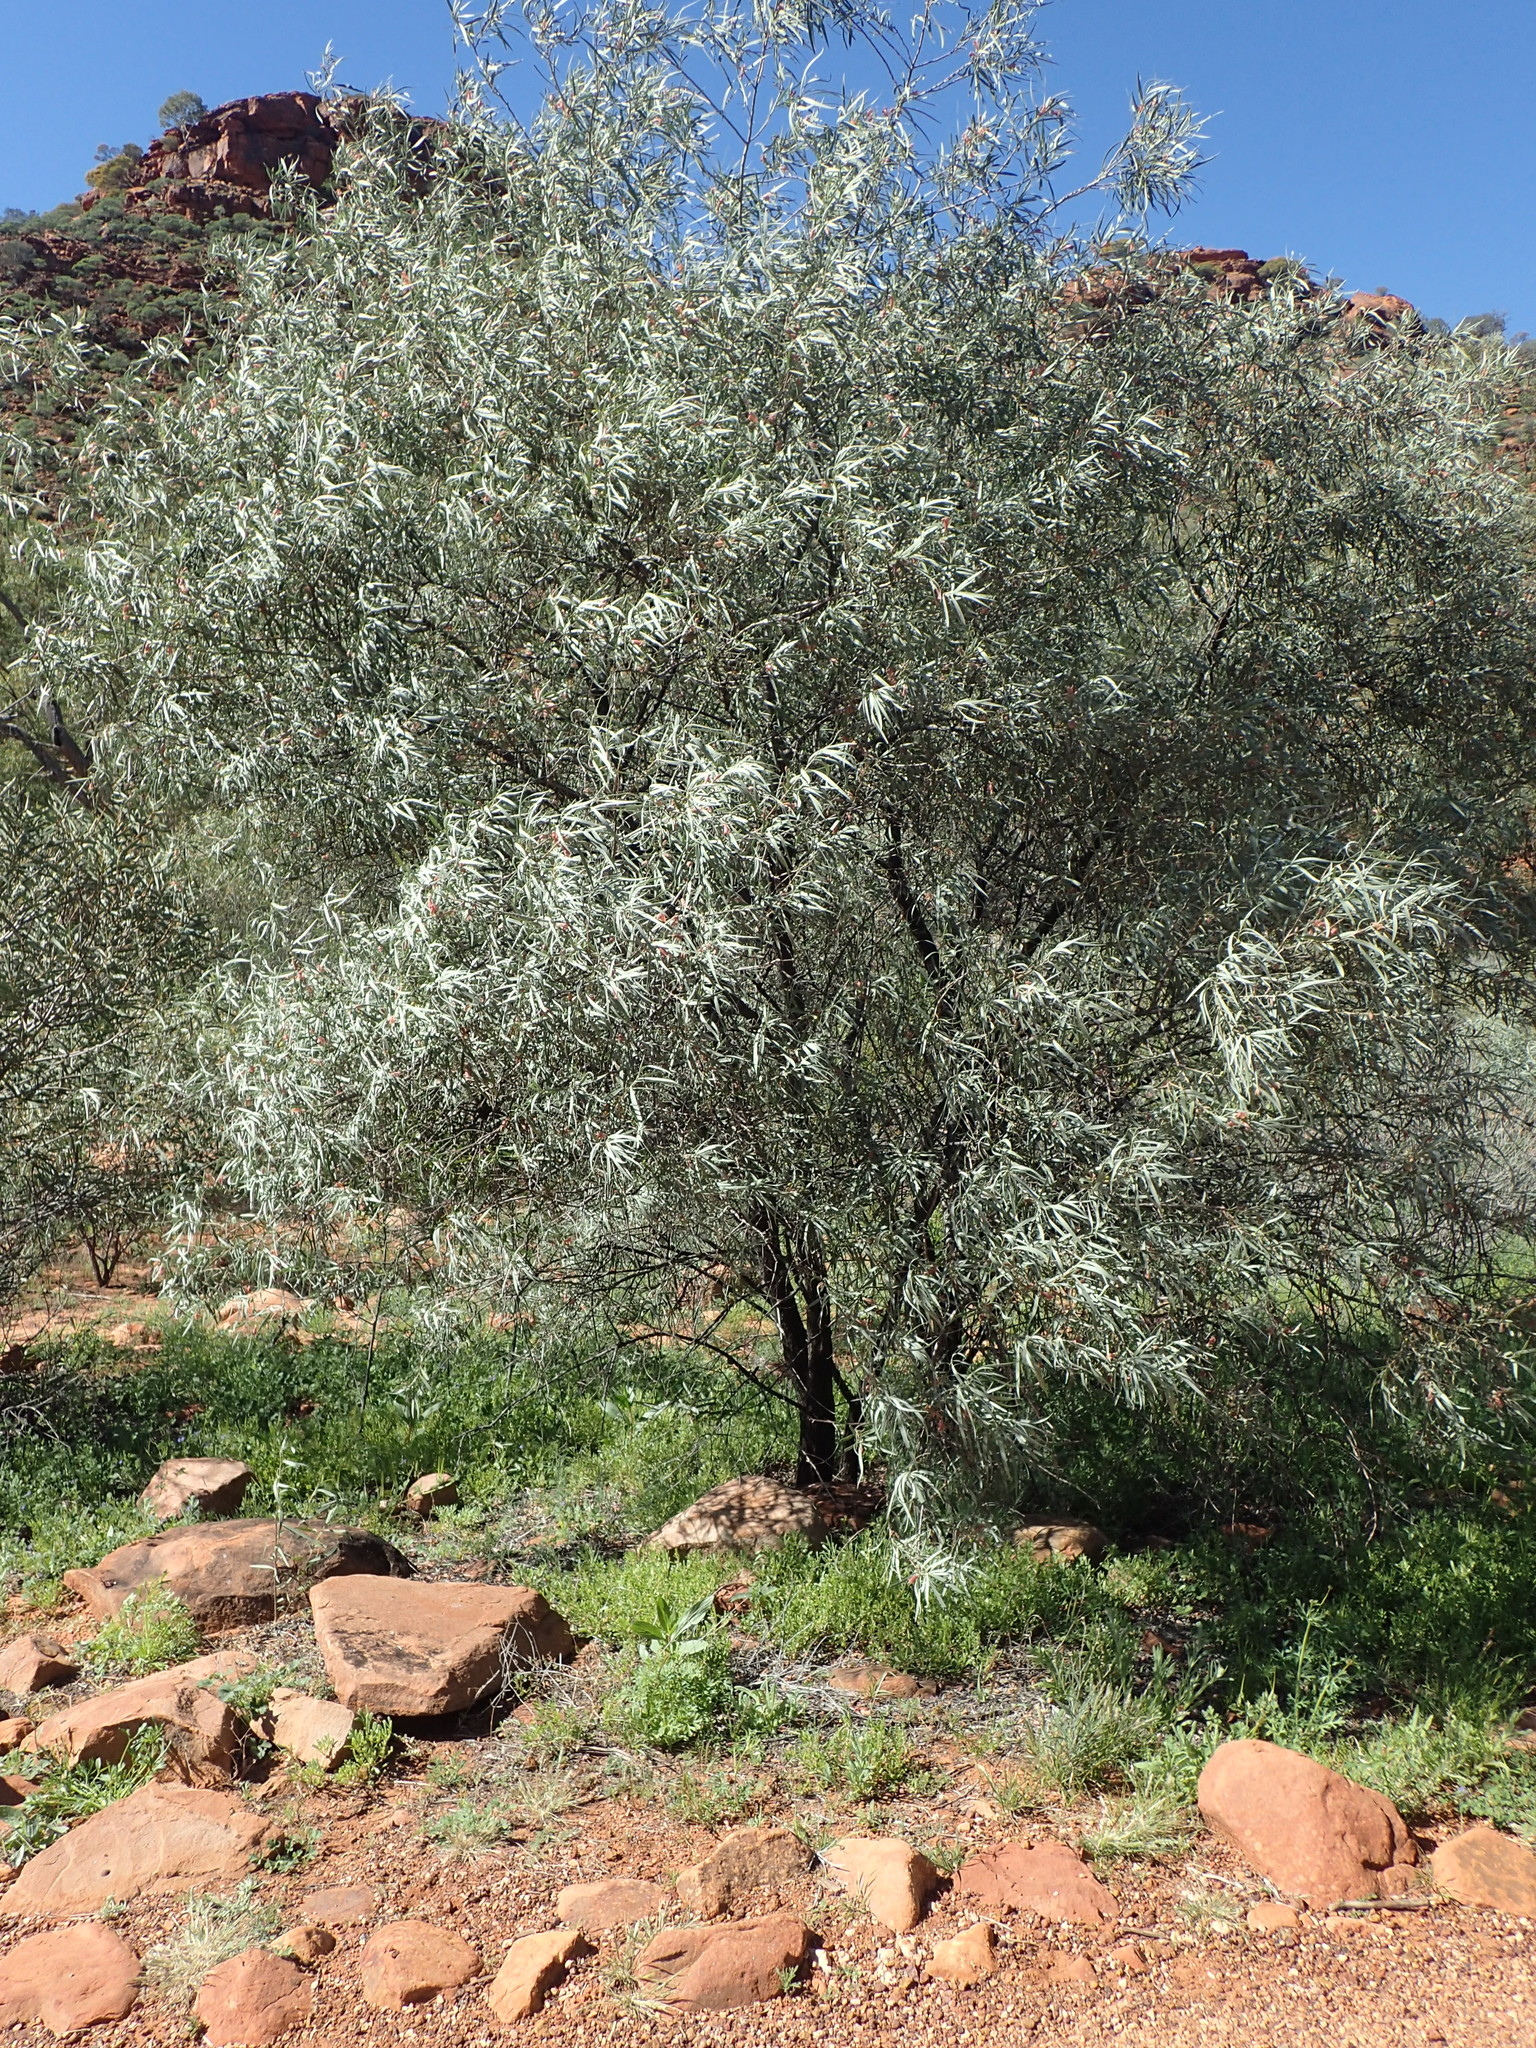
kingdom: Plantae
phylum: Tracheophyta
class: Magnoliopsida
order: Lamiales
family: Scrophulariaceae
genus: Eremophila
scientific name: Eremophila longifolia
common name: Longleaf emubush
